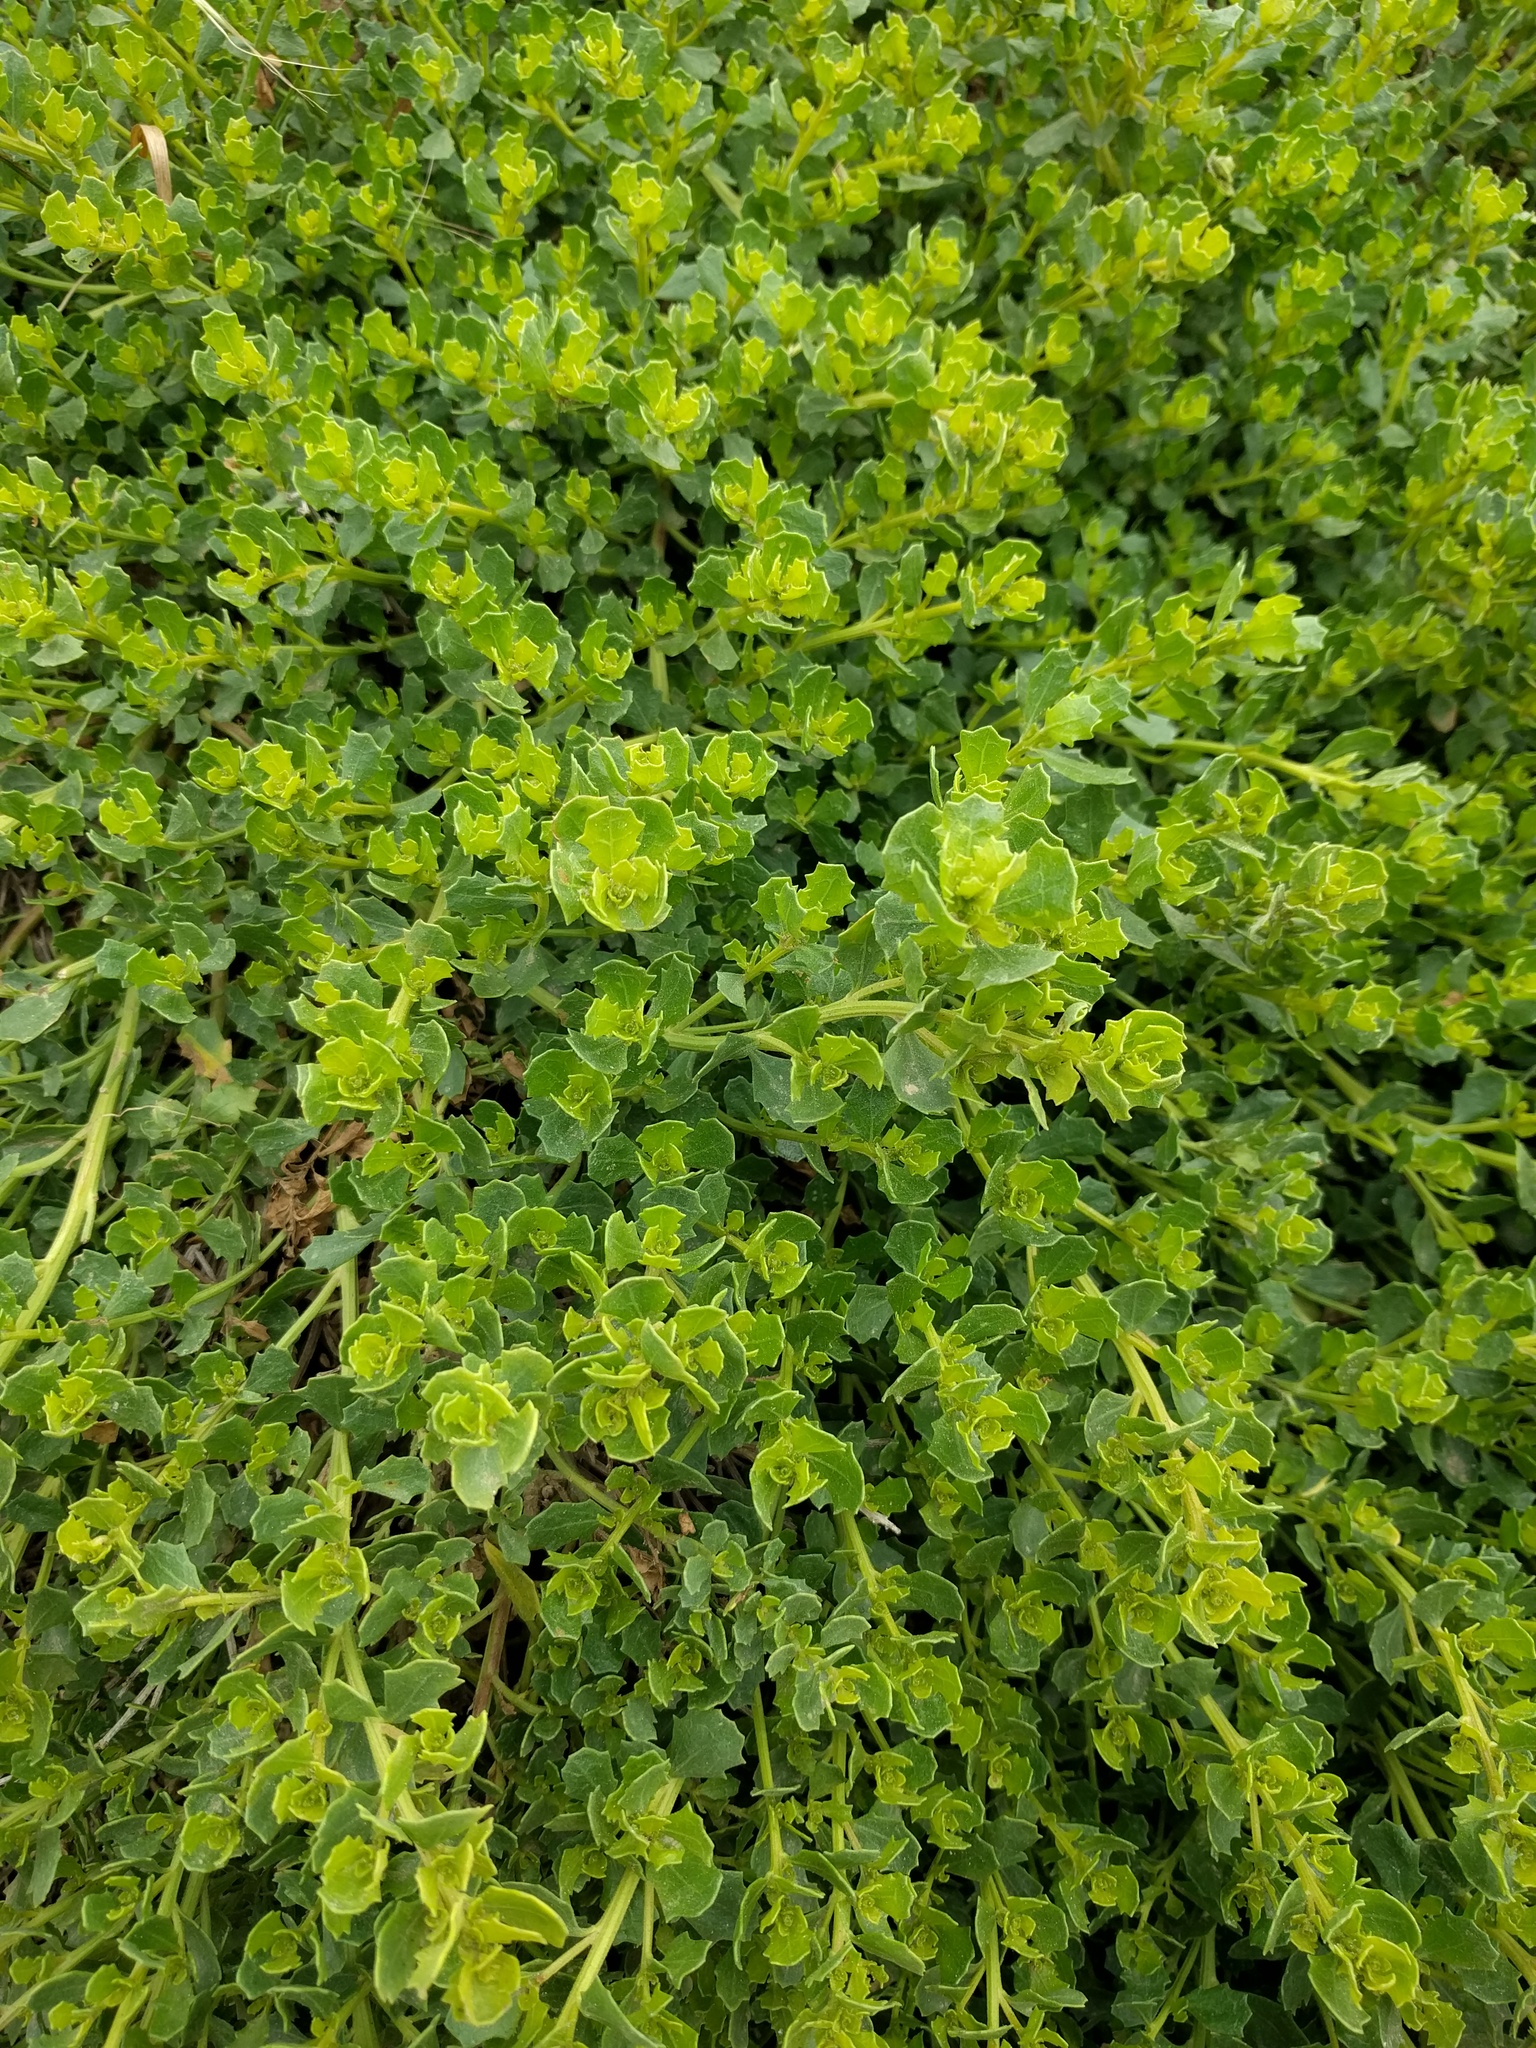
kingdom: Plantae
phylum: Tracheophyta
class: Magnoliopsida
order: Asterales
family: Asteraceae
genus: Baccharis
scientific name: Baccharis pilularis
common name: Coyotebrush
